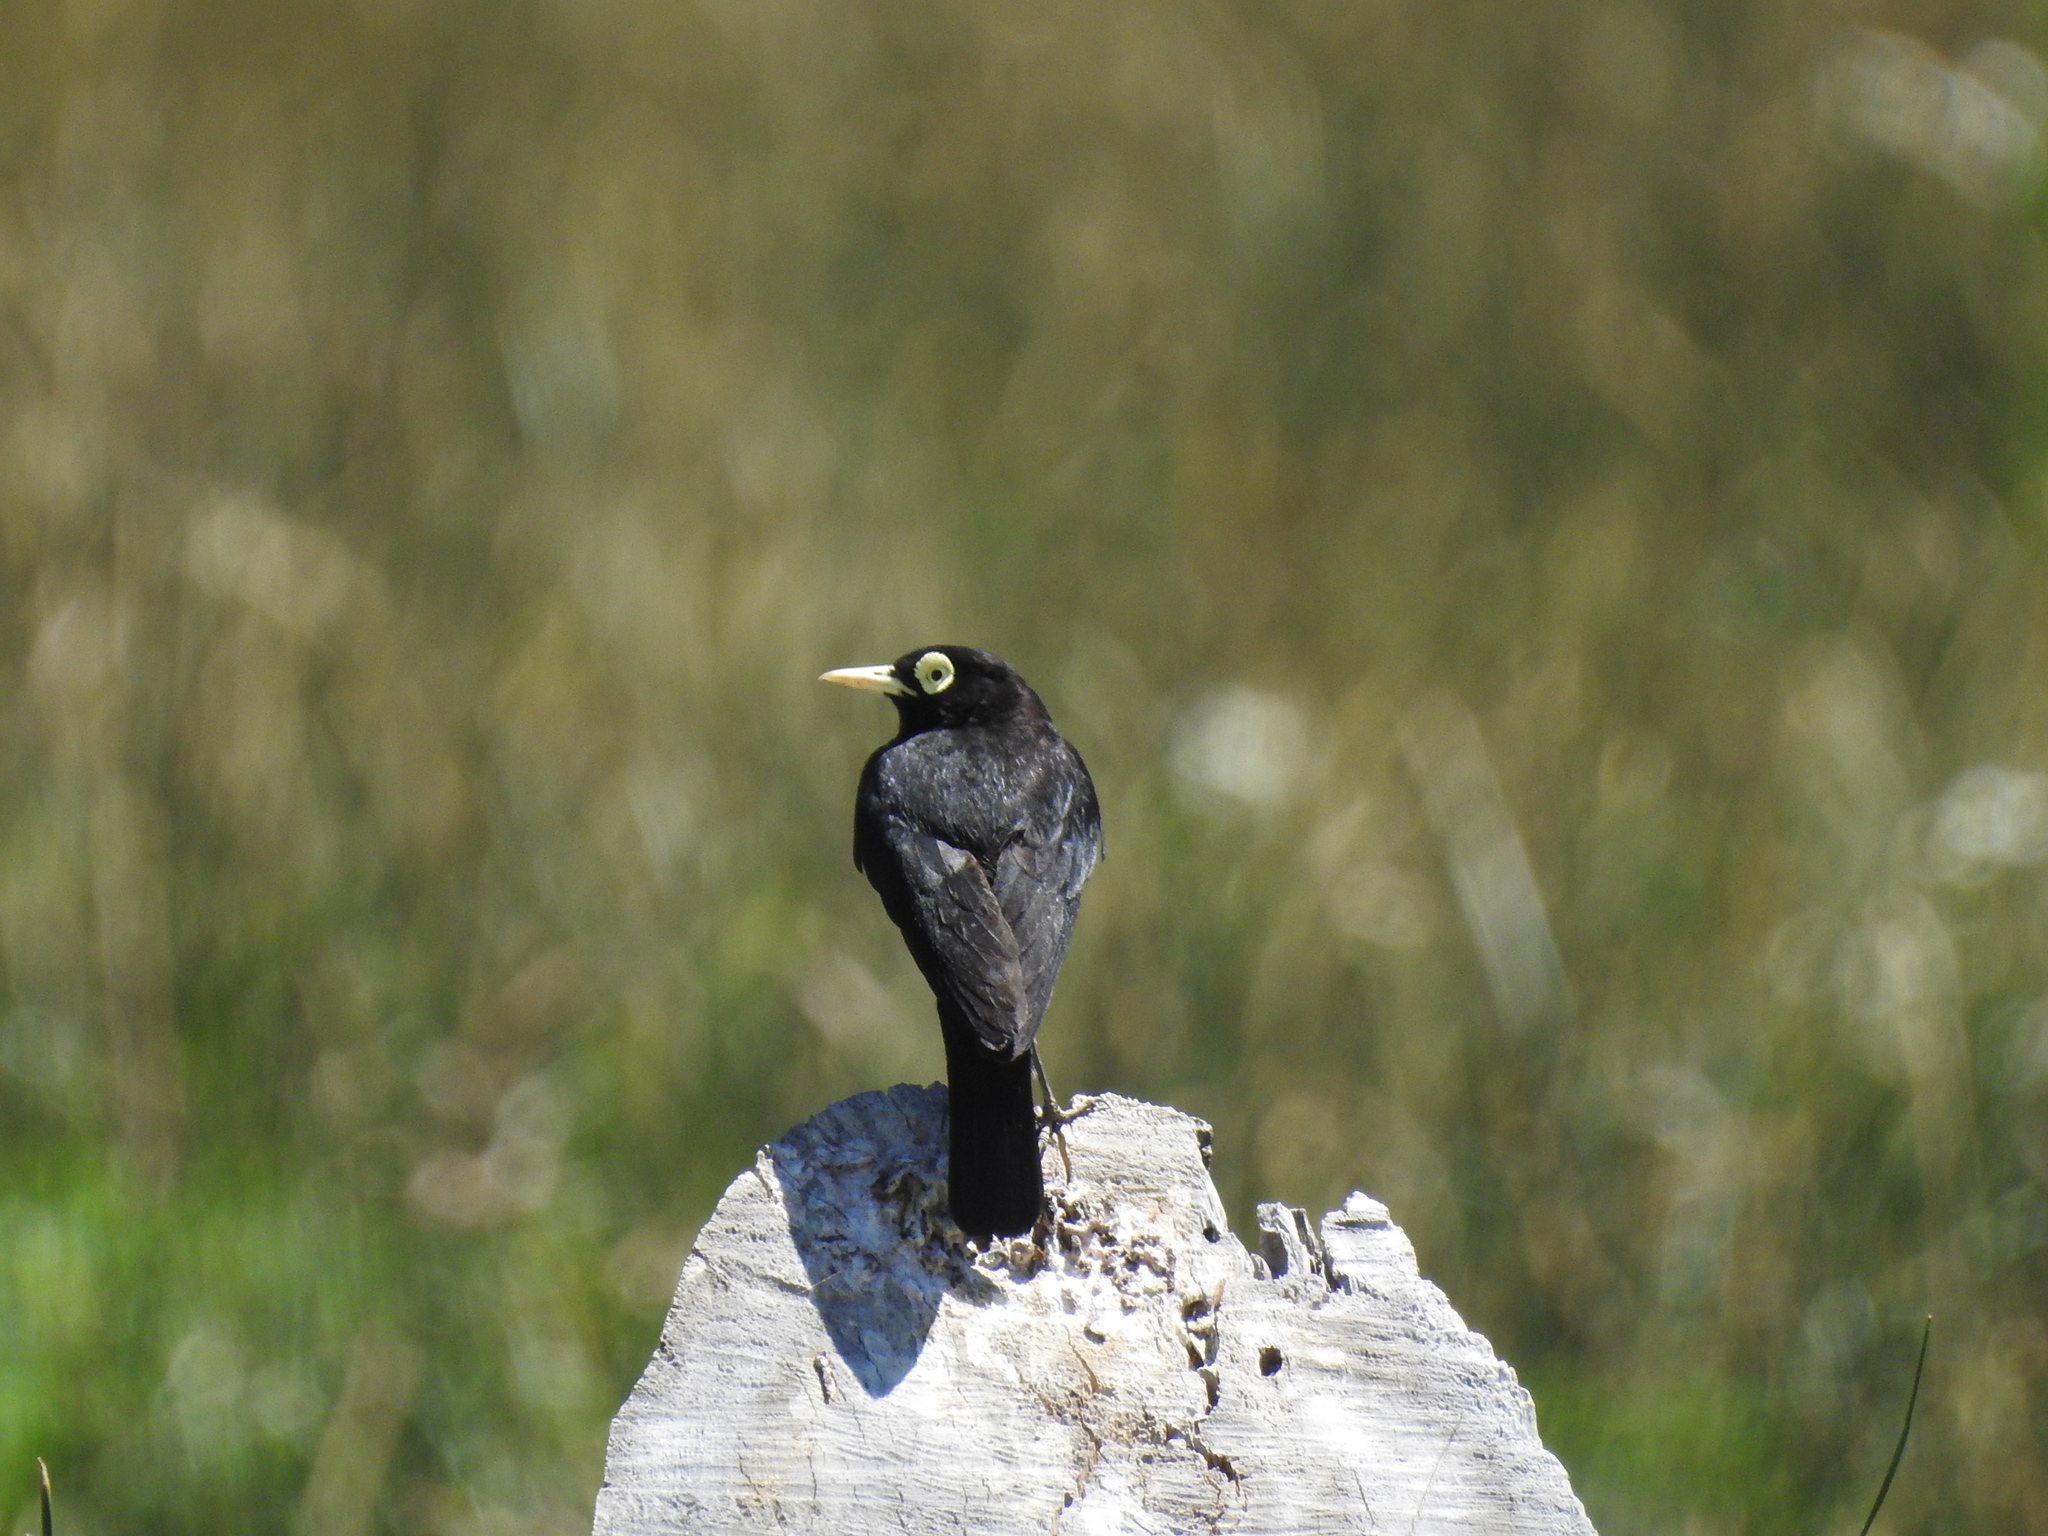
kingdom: Animalia
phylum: Chordata
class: Aves
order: Passeriformes
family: Tyrannidae
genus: Hymenops
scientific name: Hymenops perspicillatus
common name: Spectacled tyrant
